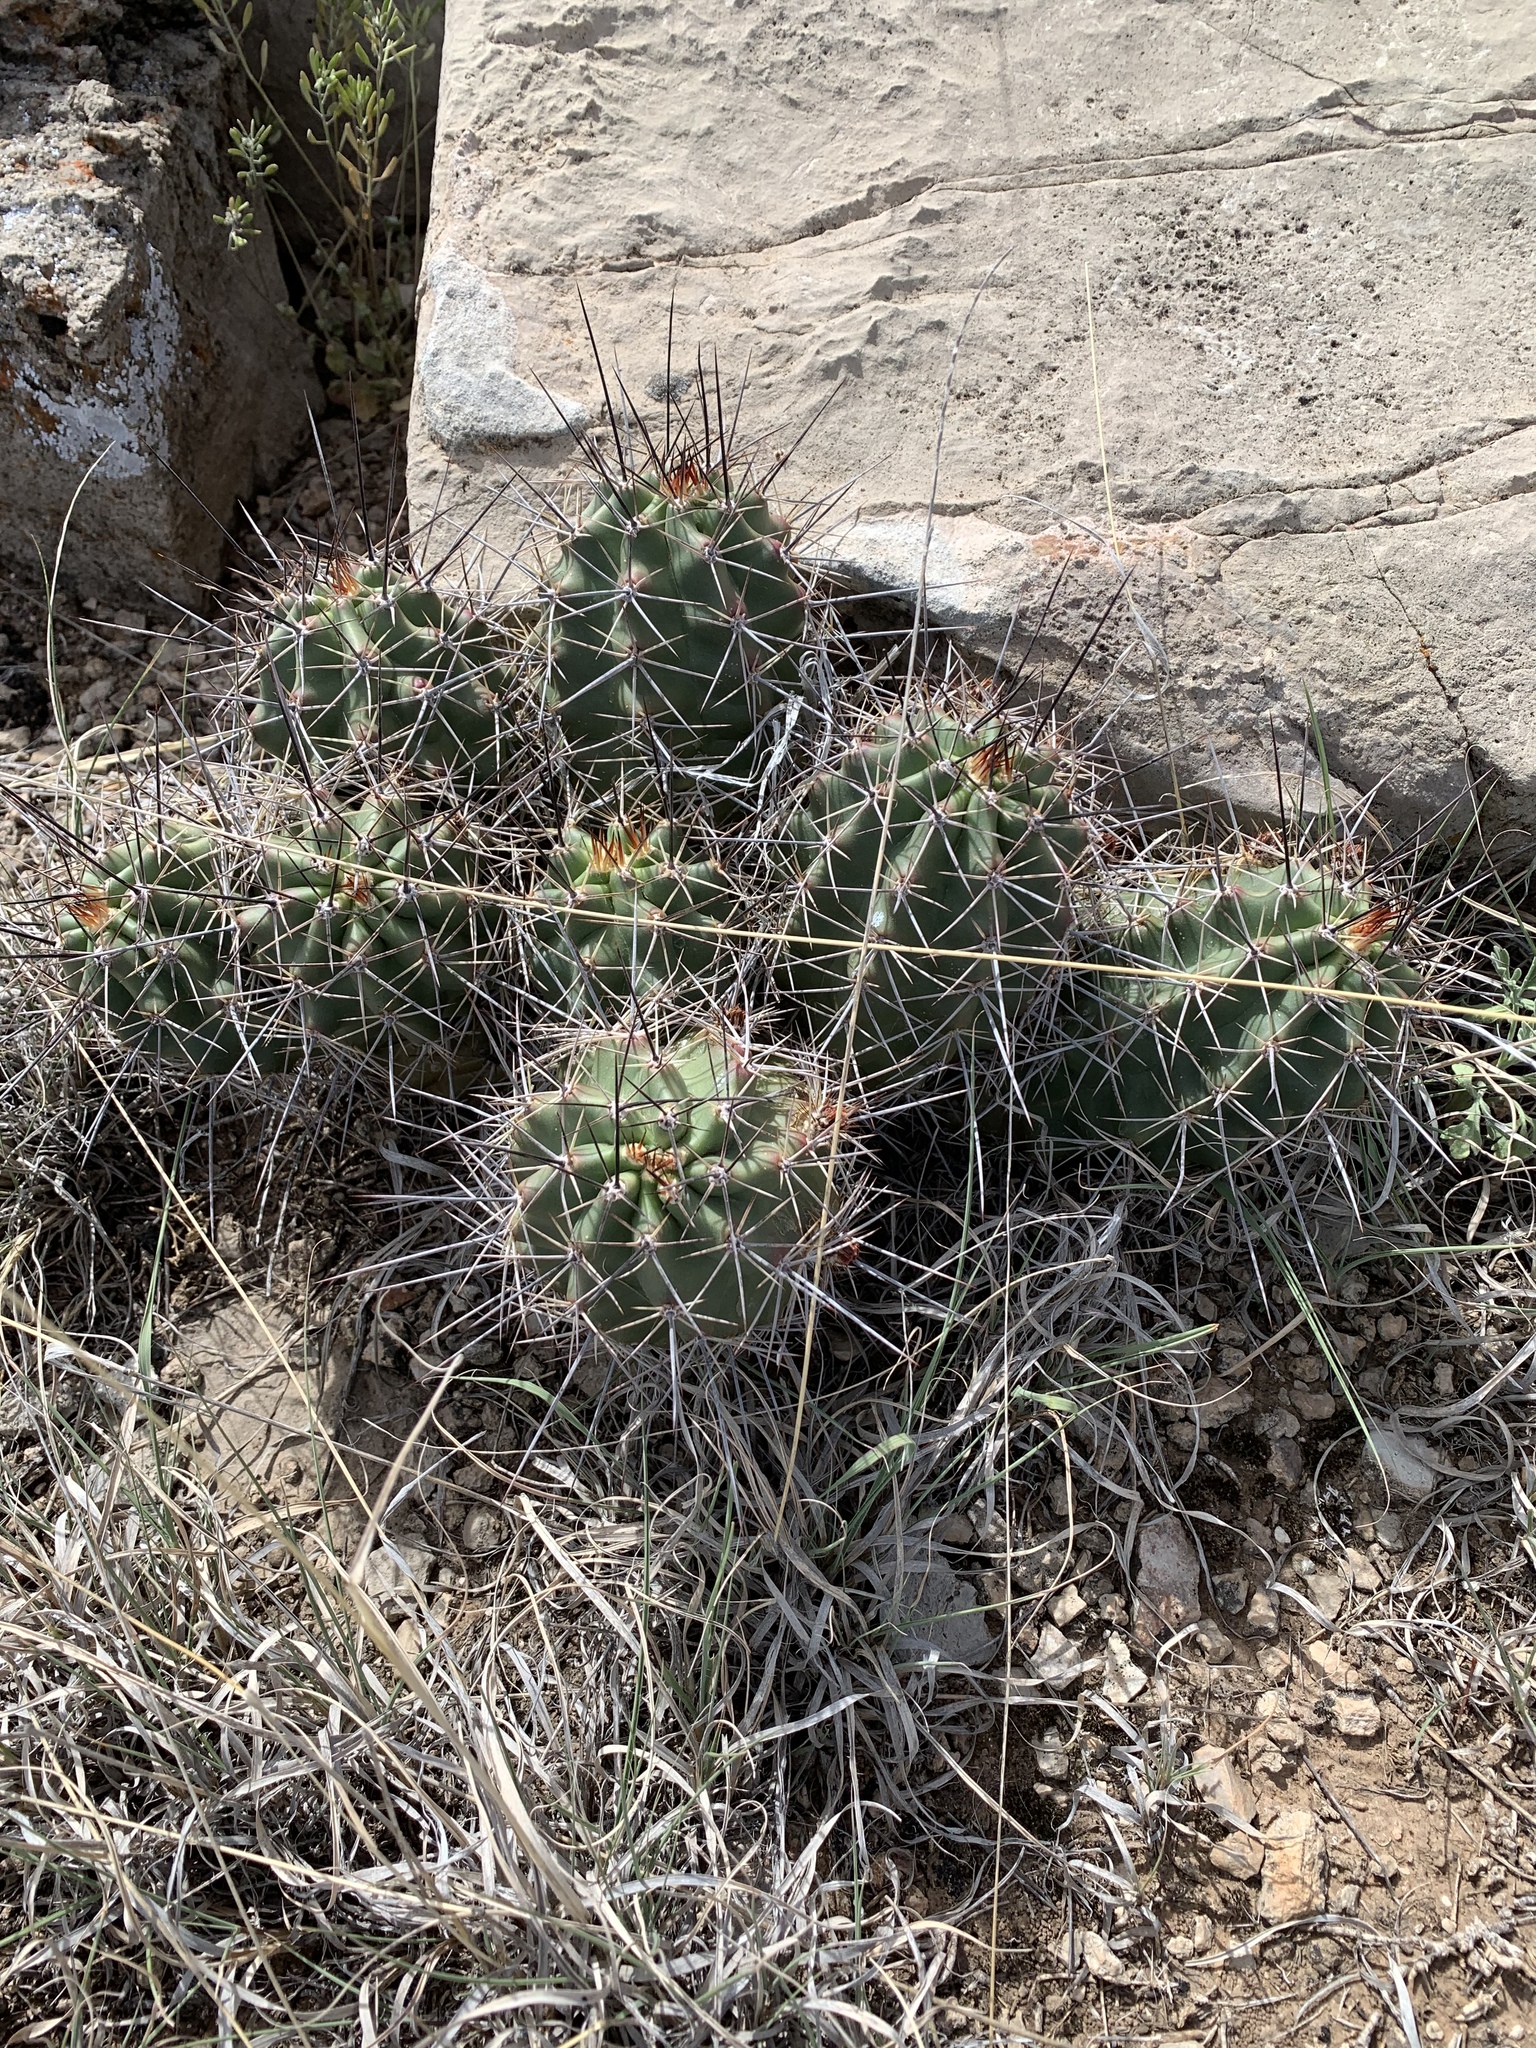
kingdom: Plantae
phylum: Tracheophyta
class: Magnoliopsida
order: Caryophyllales
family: Cactaceae
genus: Echinocereus
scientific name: Echinocereus coccineus
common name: Scarlet hedgehog cactus
